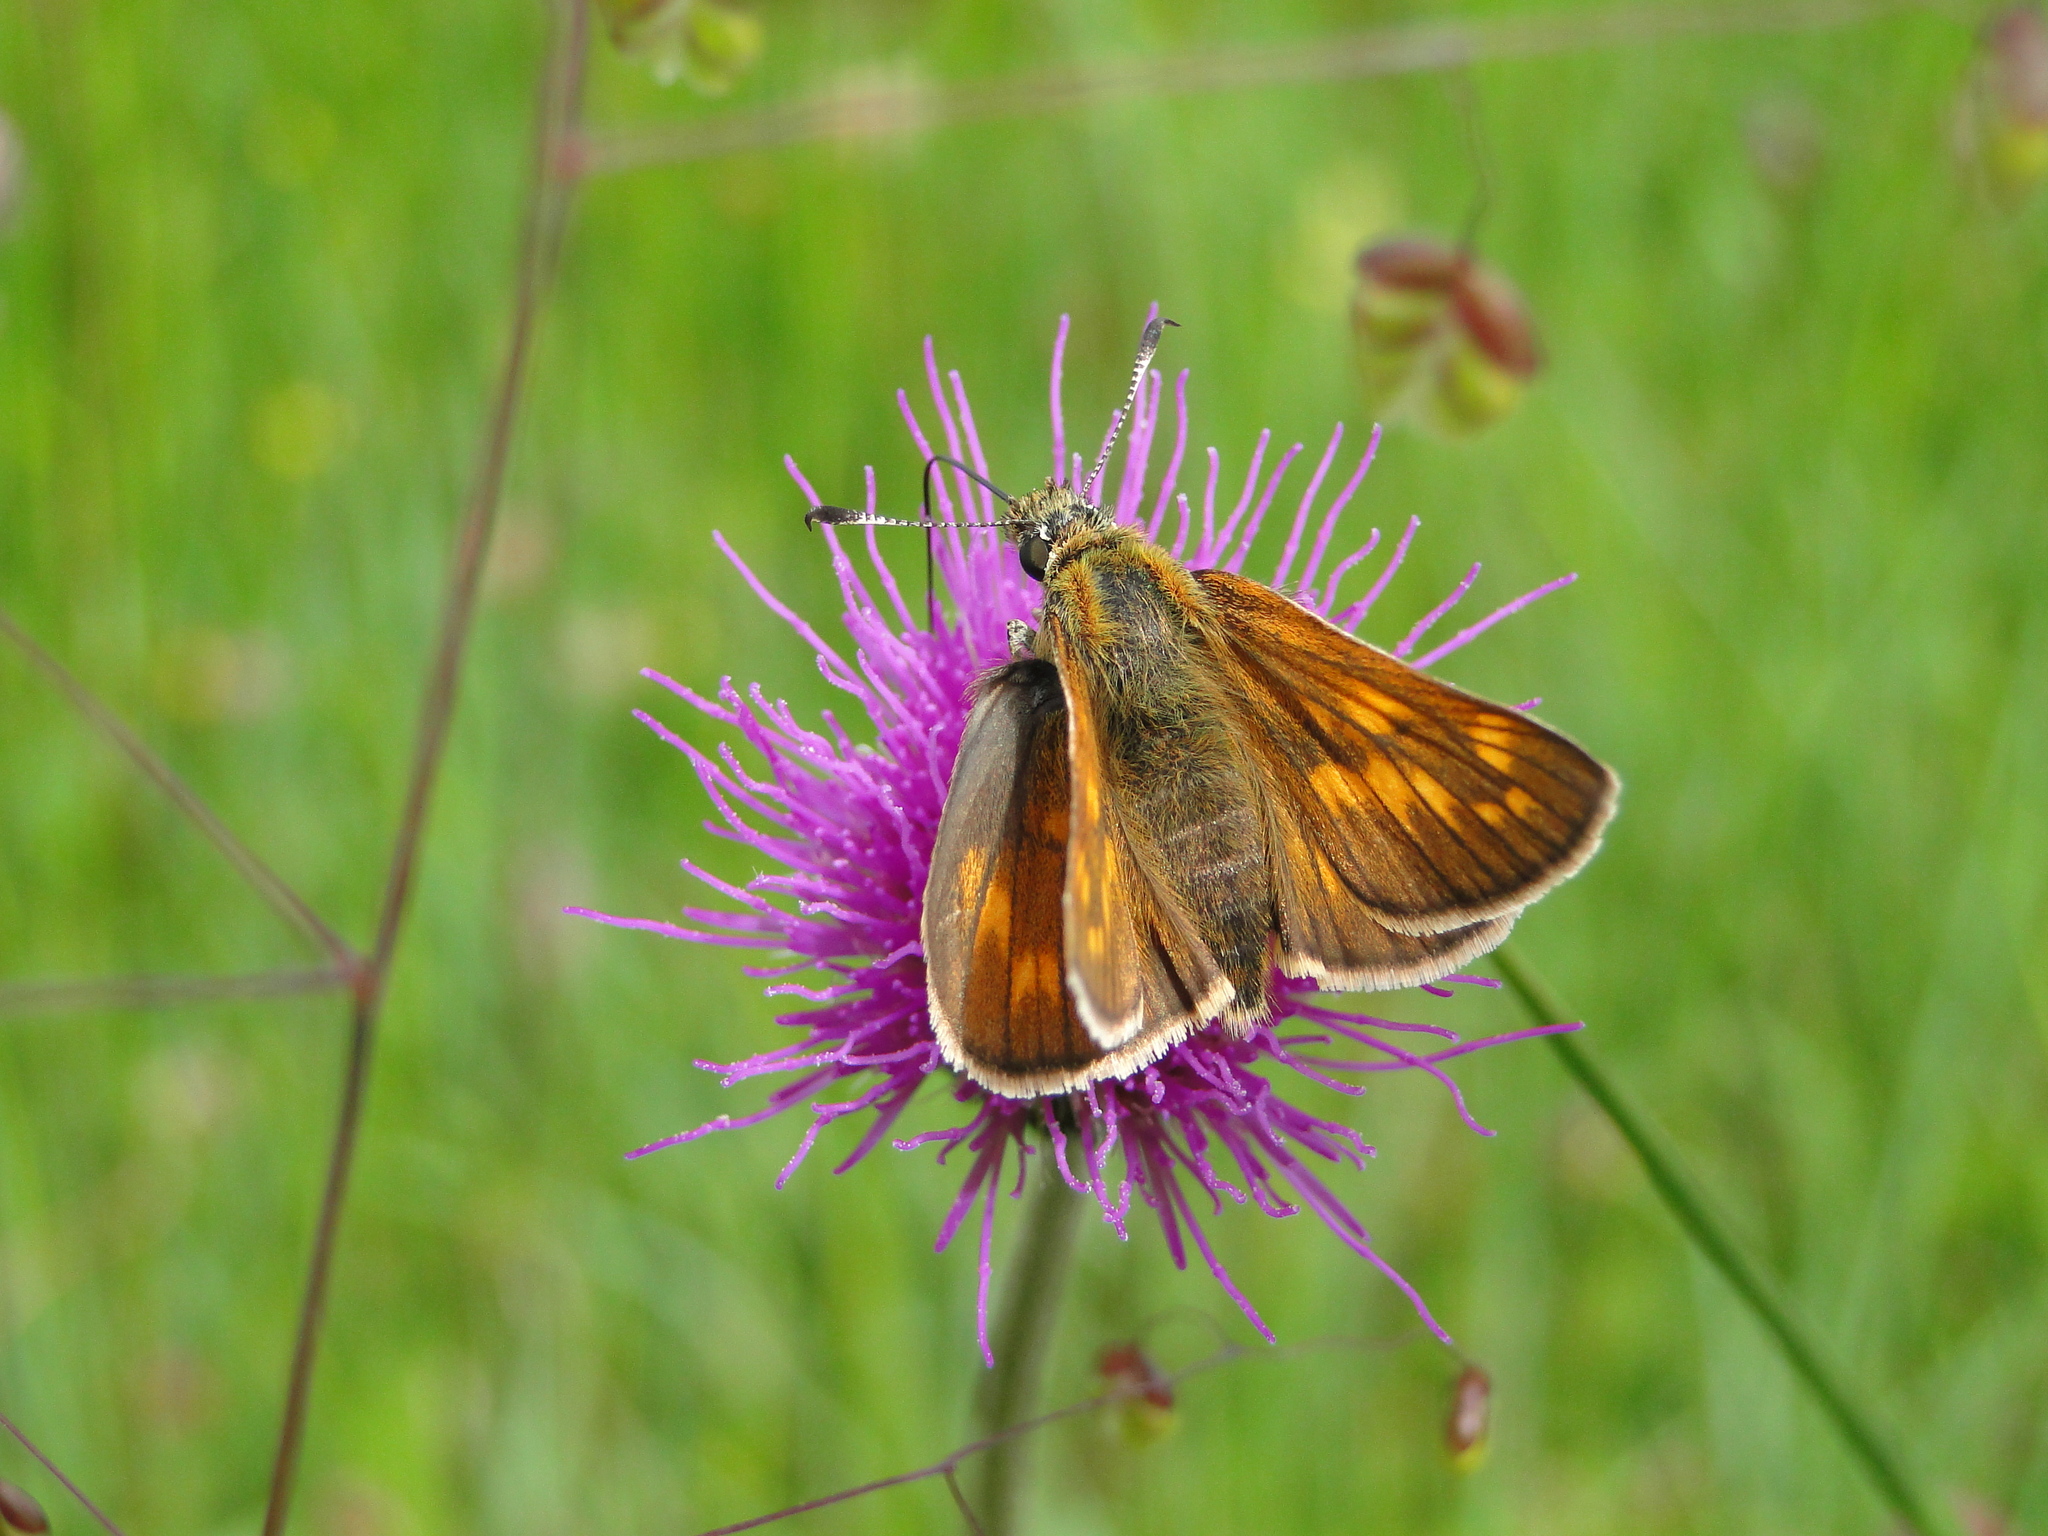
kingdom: Animalia
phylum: Arthropoda
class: Insecta
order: Lepidoptera
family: Hesperiidae
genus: Ochlodes
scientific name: Ochlodes venata
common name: Large skipper
